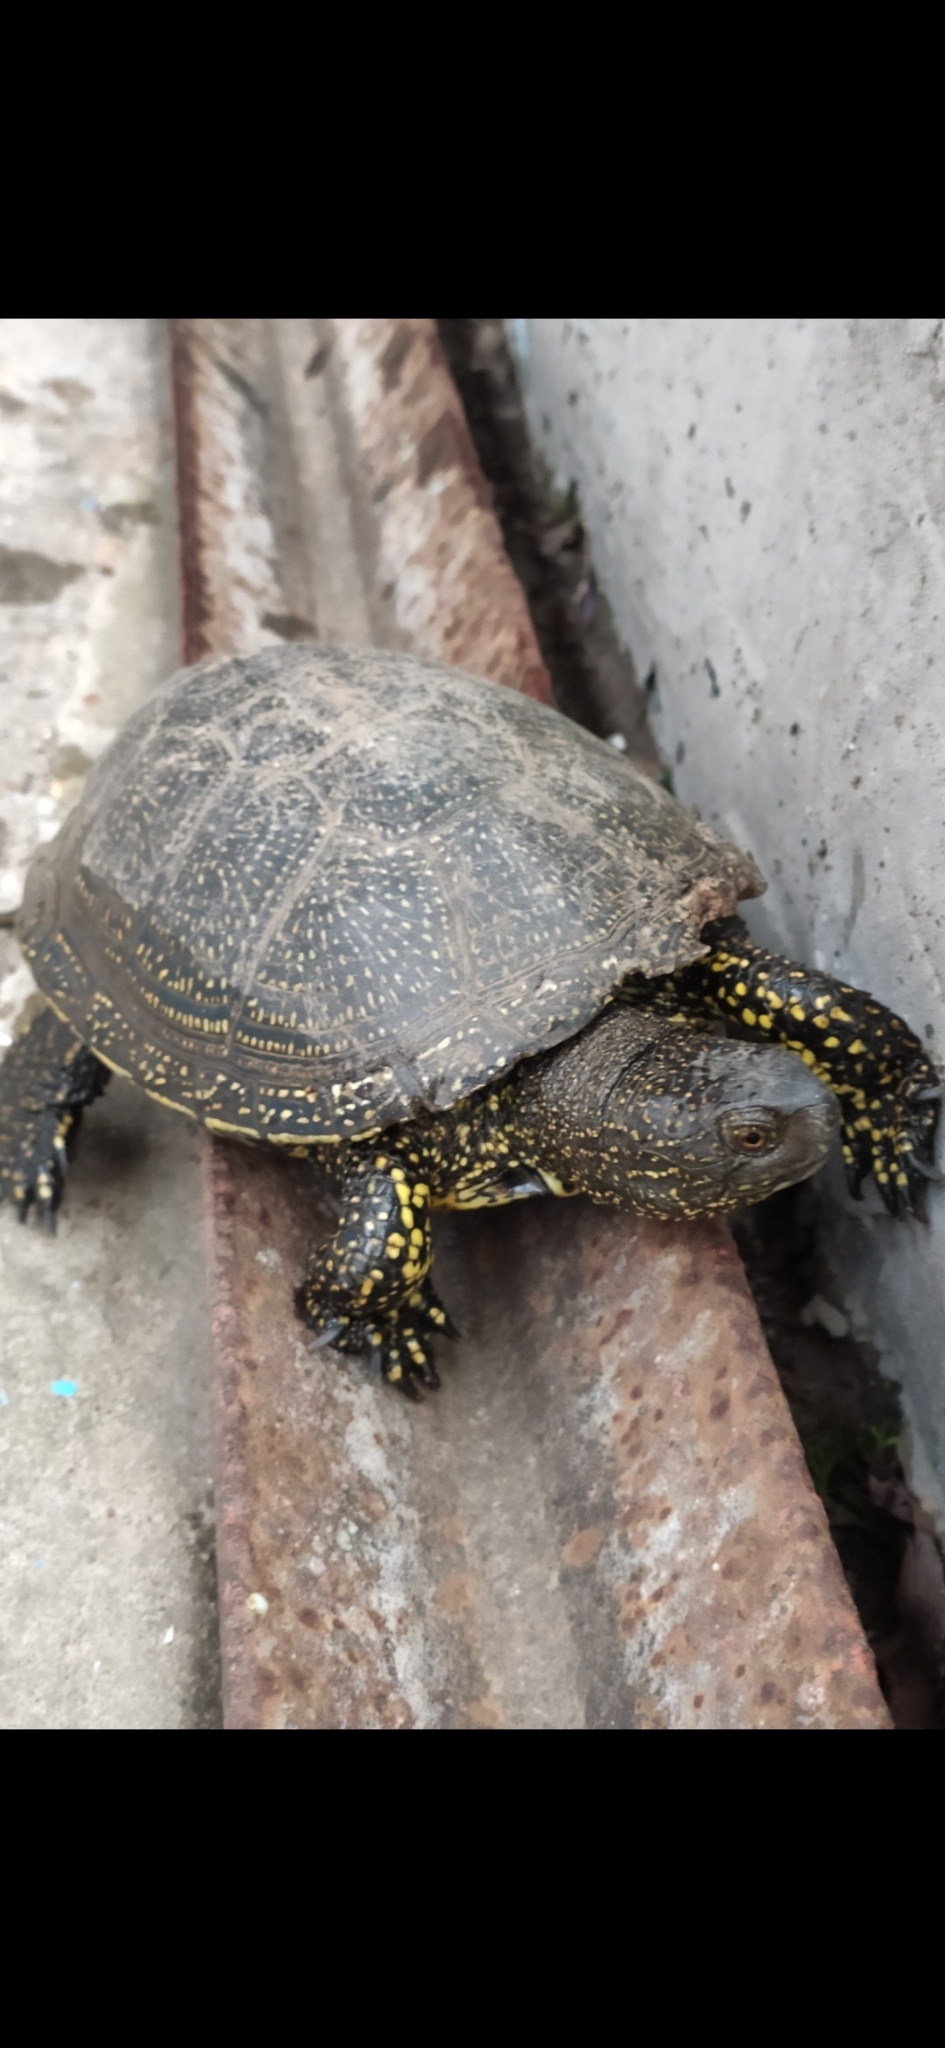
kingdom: Animalia
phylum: Chordata
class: Testudines
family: Emydidae
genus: Emys
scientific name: Emys orbicularis
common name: European pond turtle
